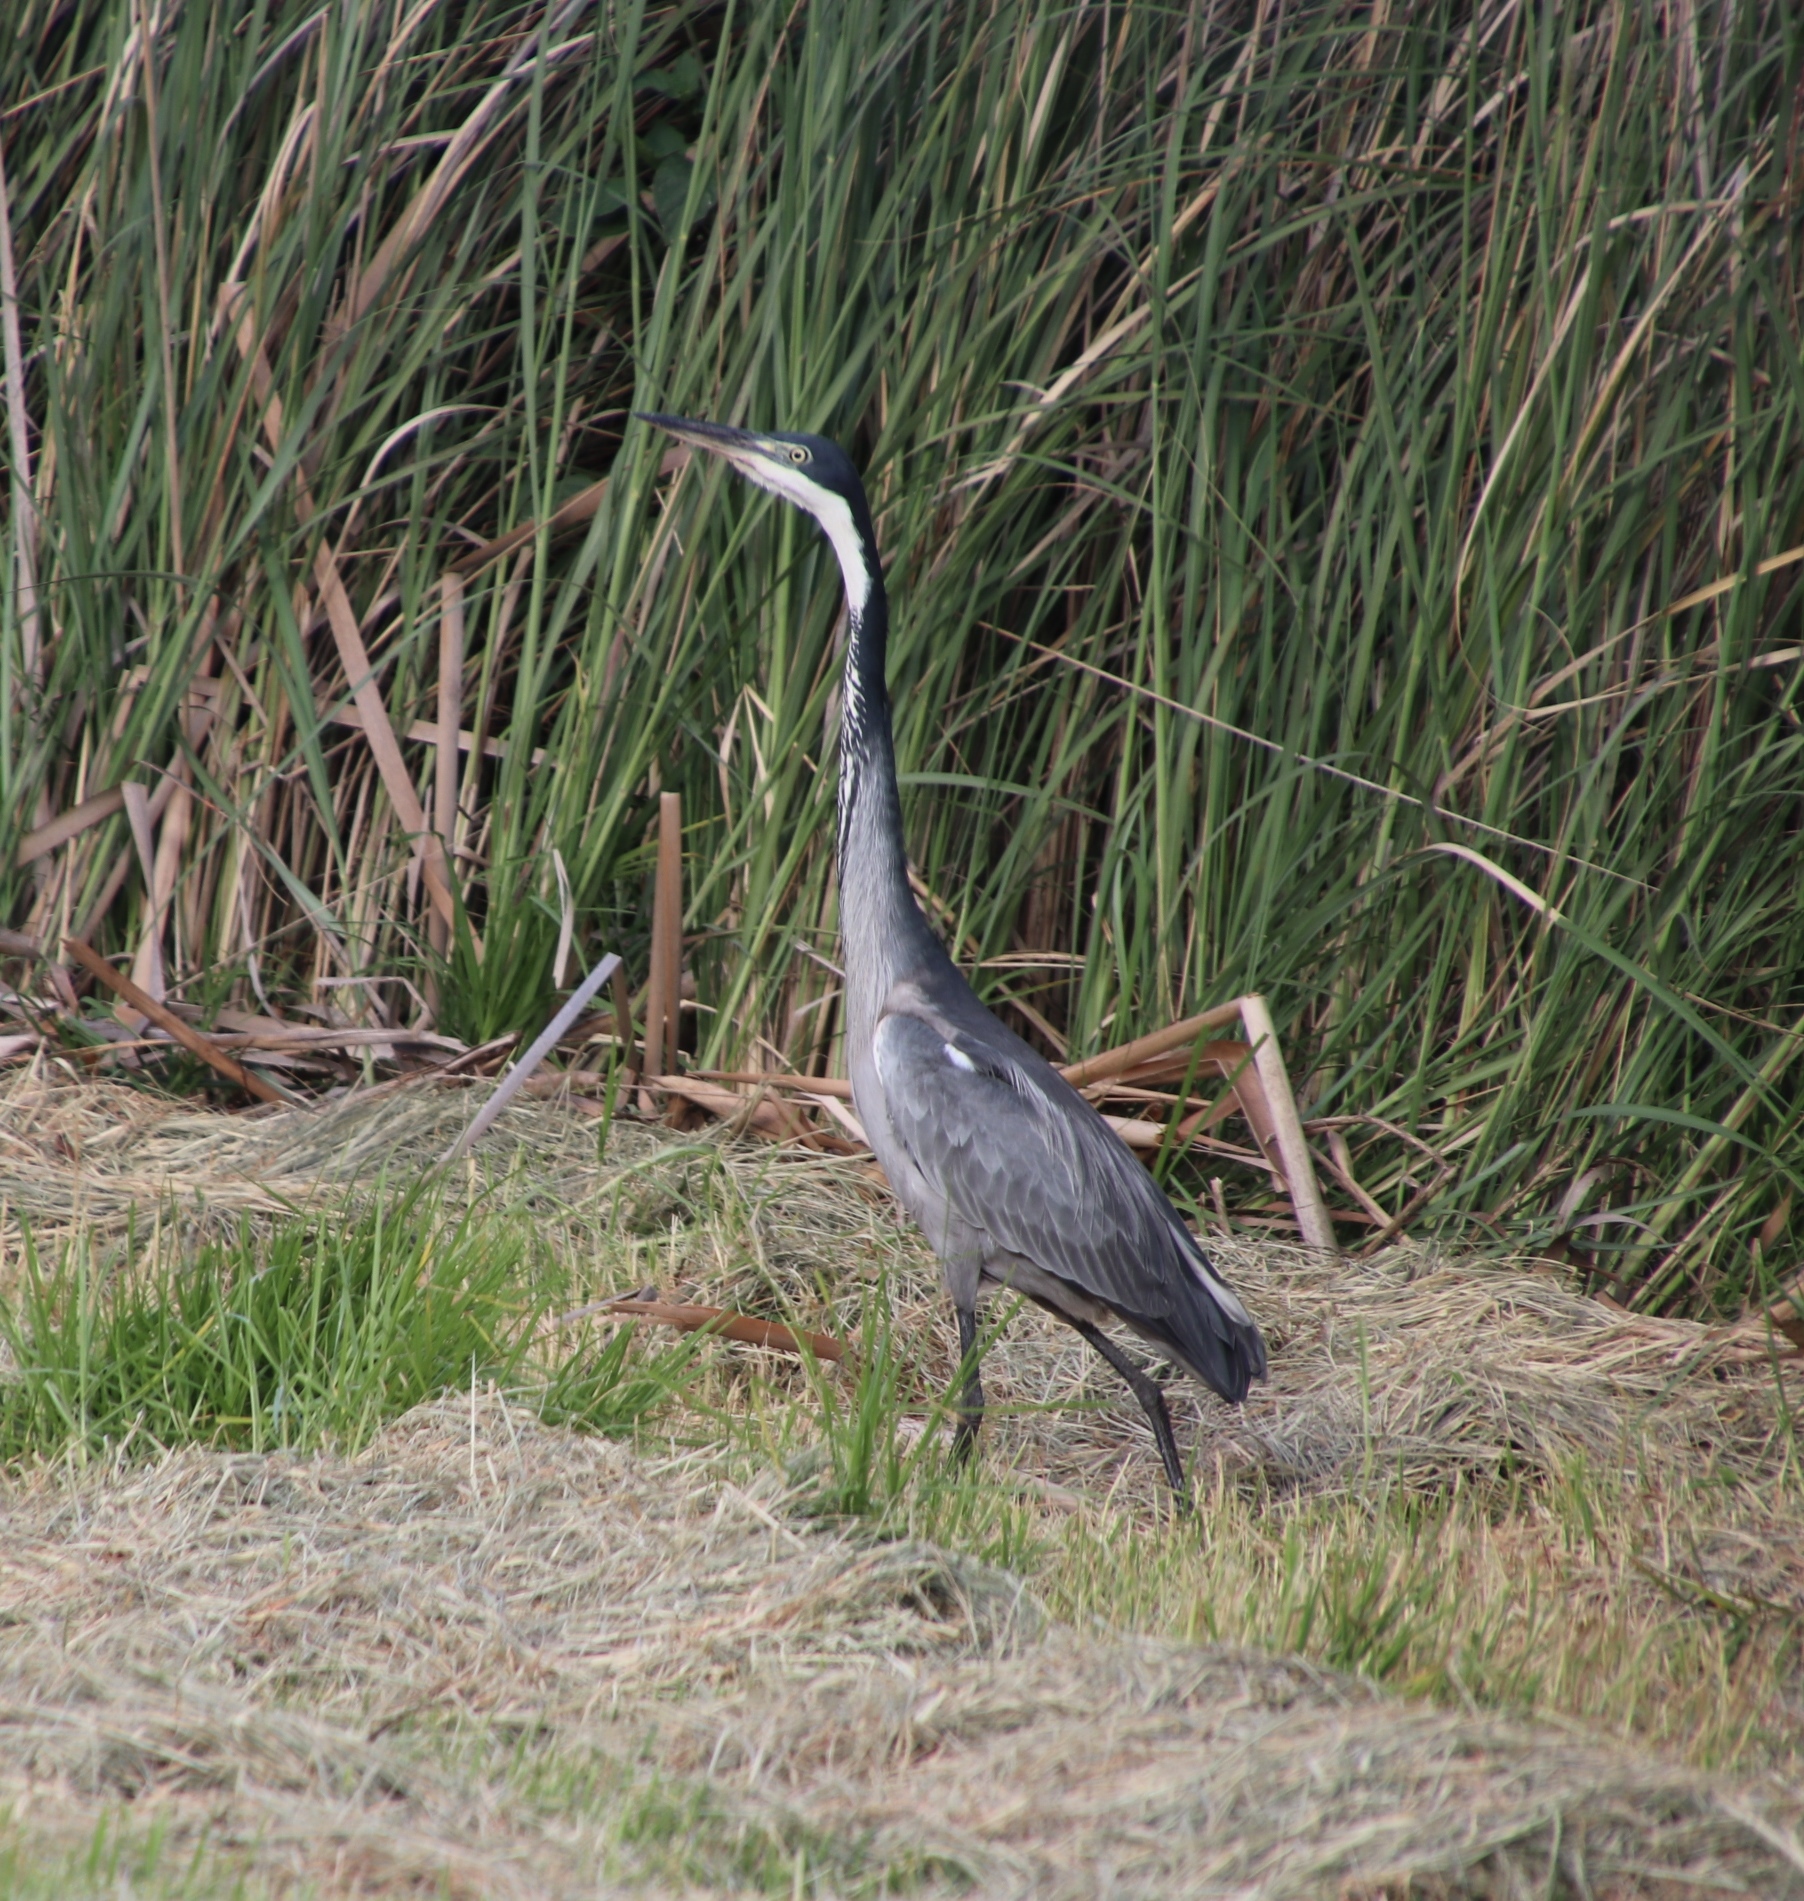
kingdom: Animalia
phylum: Chordata
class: Aves
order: Pelecaniformes
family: Ardeidae
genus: Ardea
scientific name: Ardea melanocephala
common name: Black-headed heron
